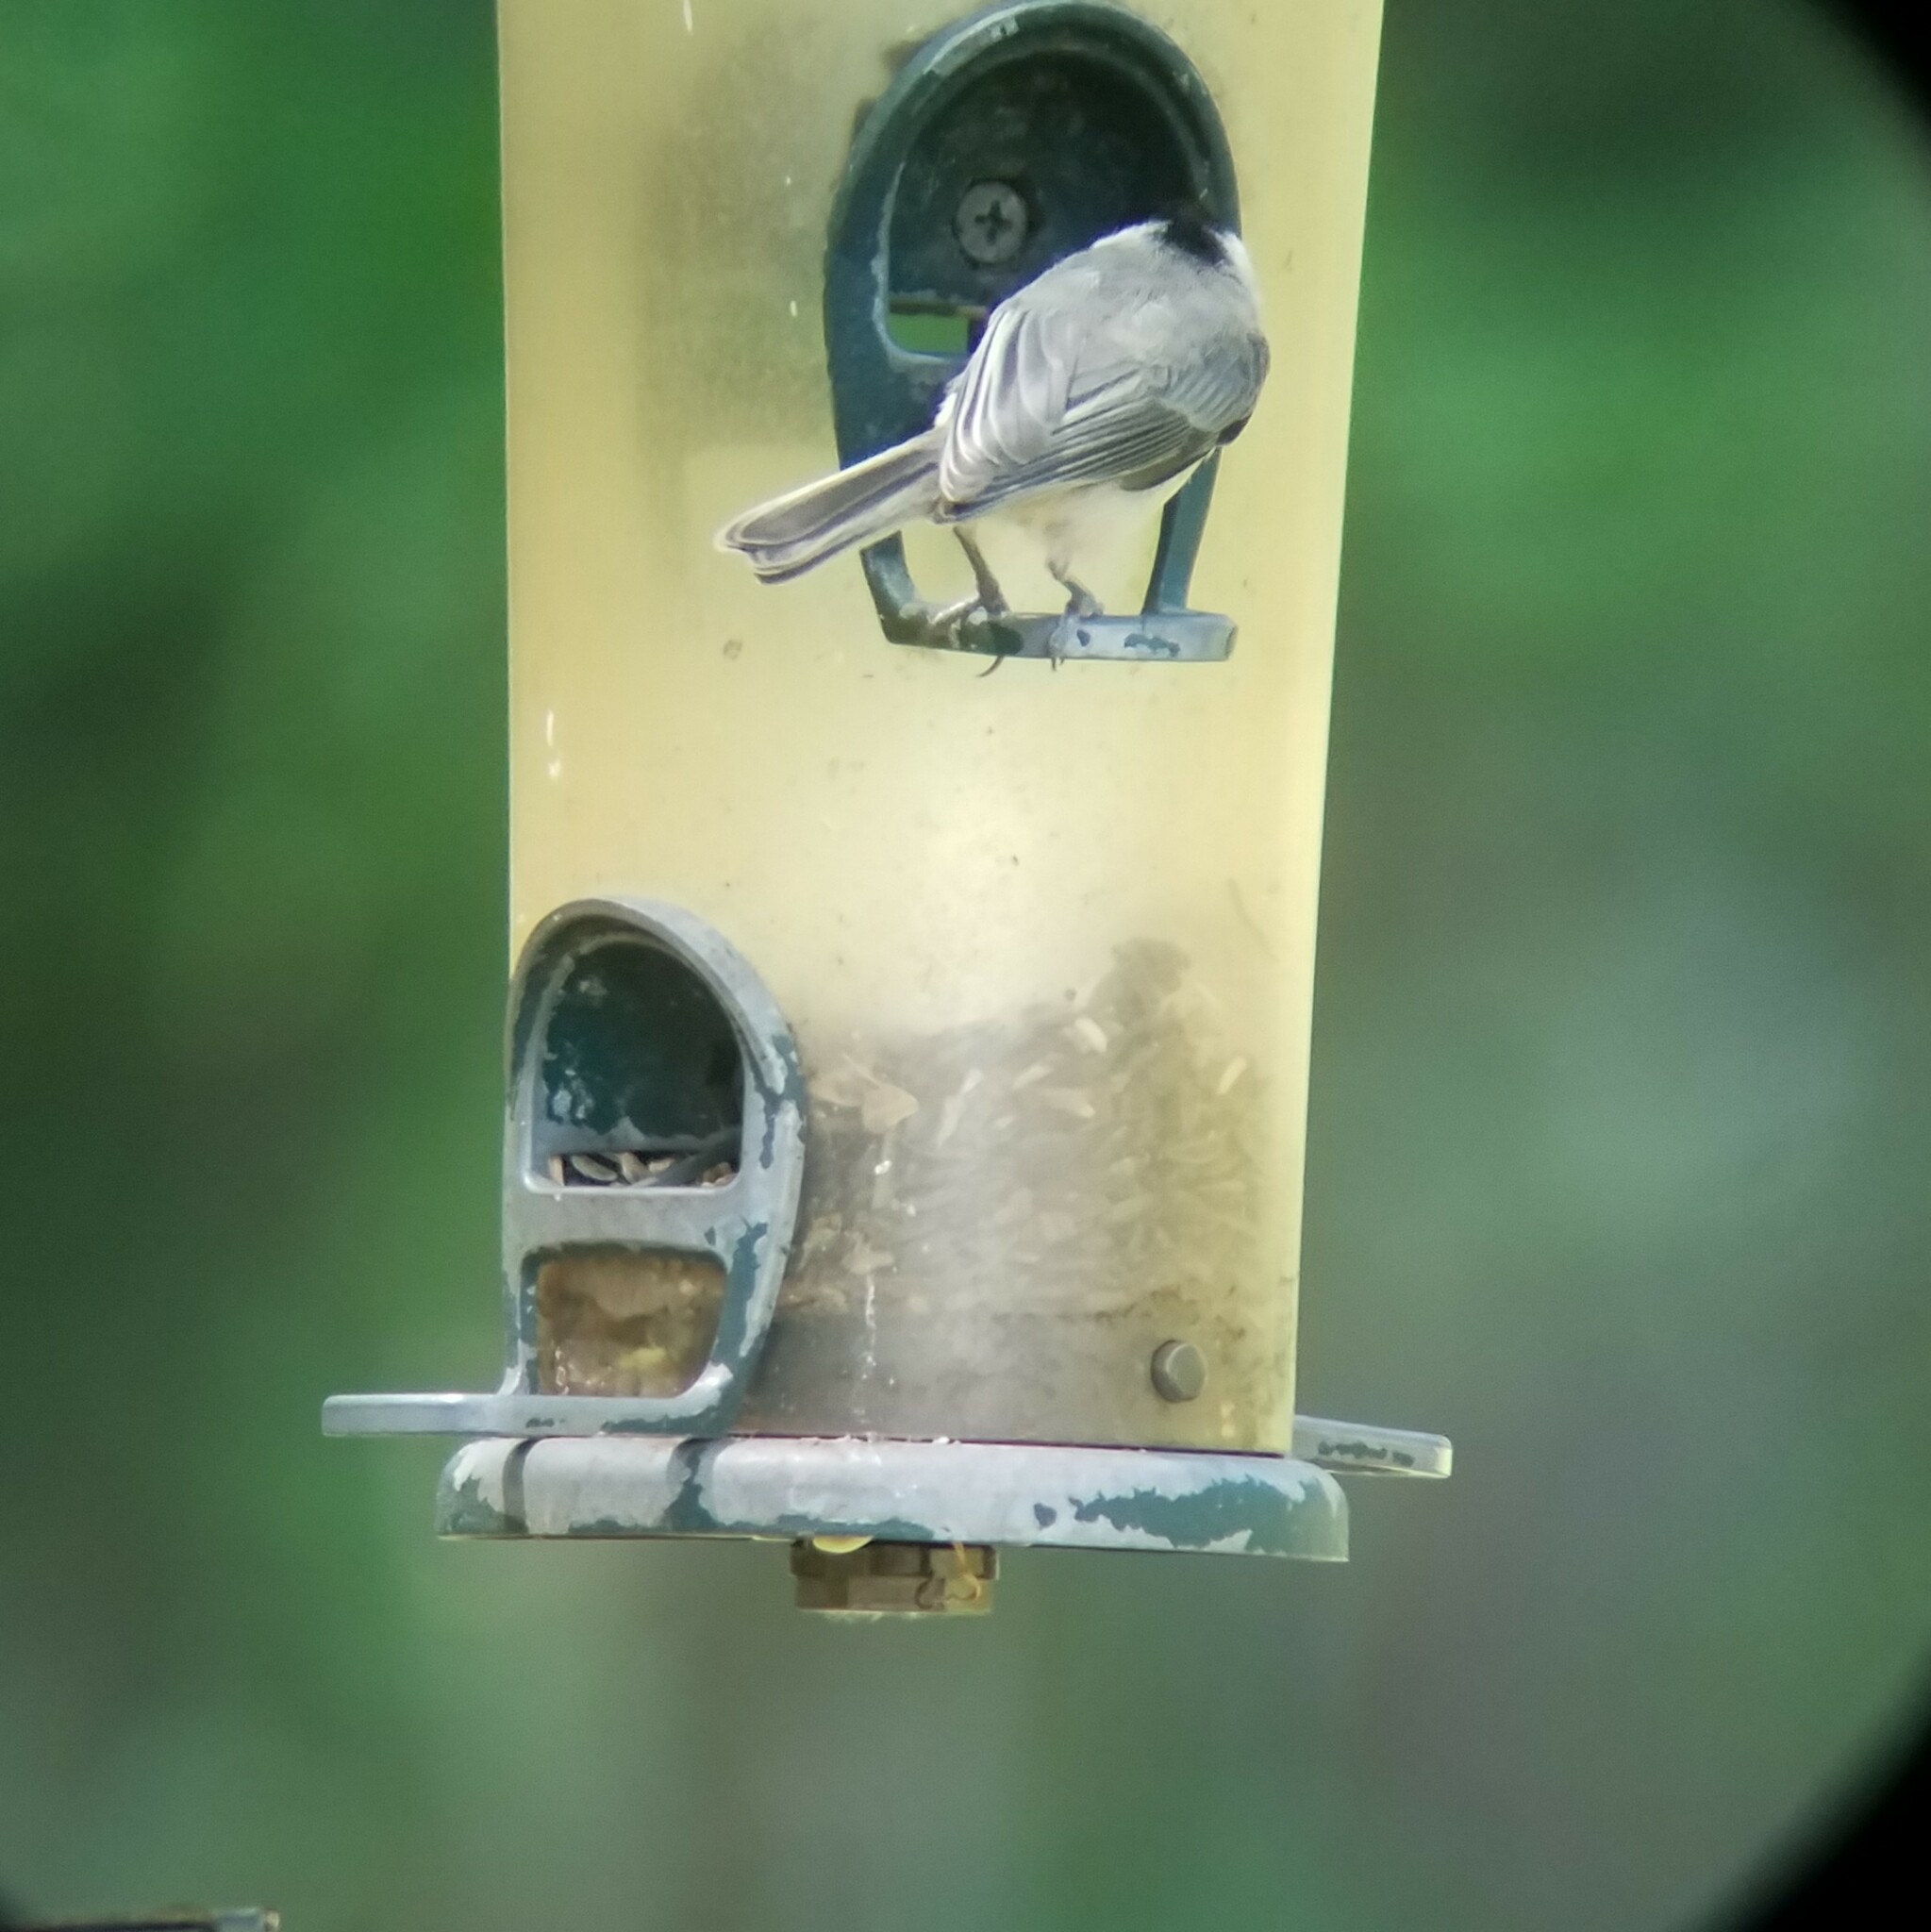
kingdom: Animalia
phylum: Chordata
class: Aves
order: Passeriformes
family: Paridae
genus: Poecile
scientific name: Poecile carolinensis
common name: Carolina chickadee
